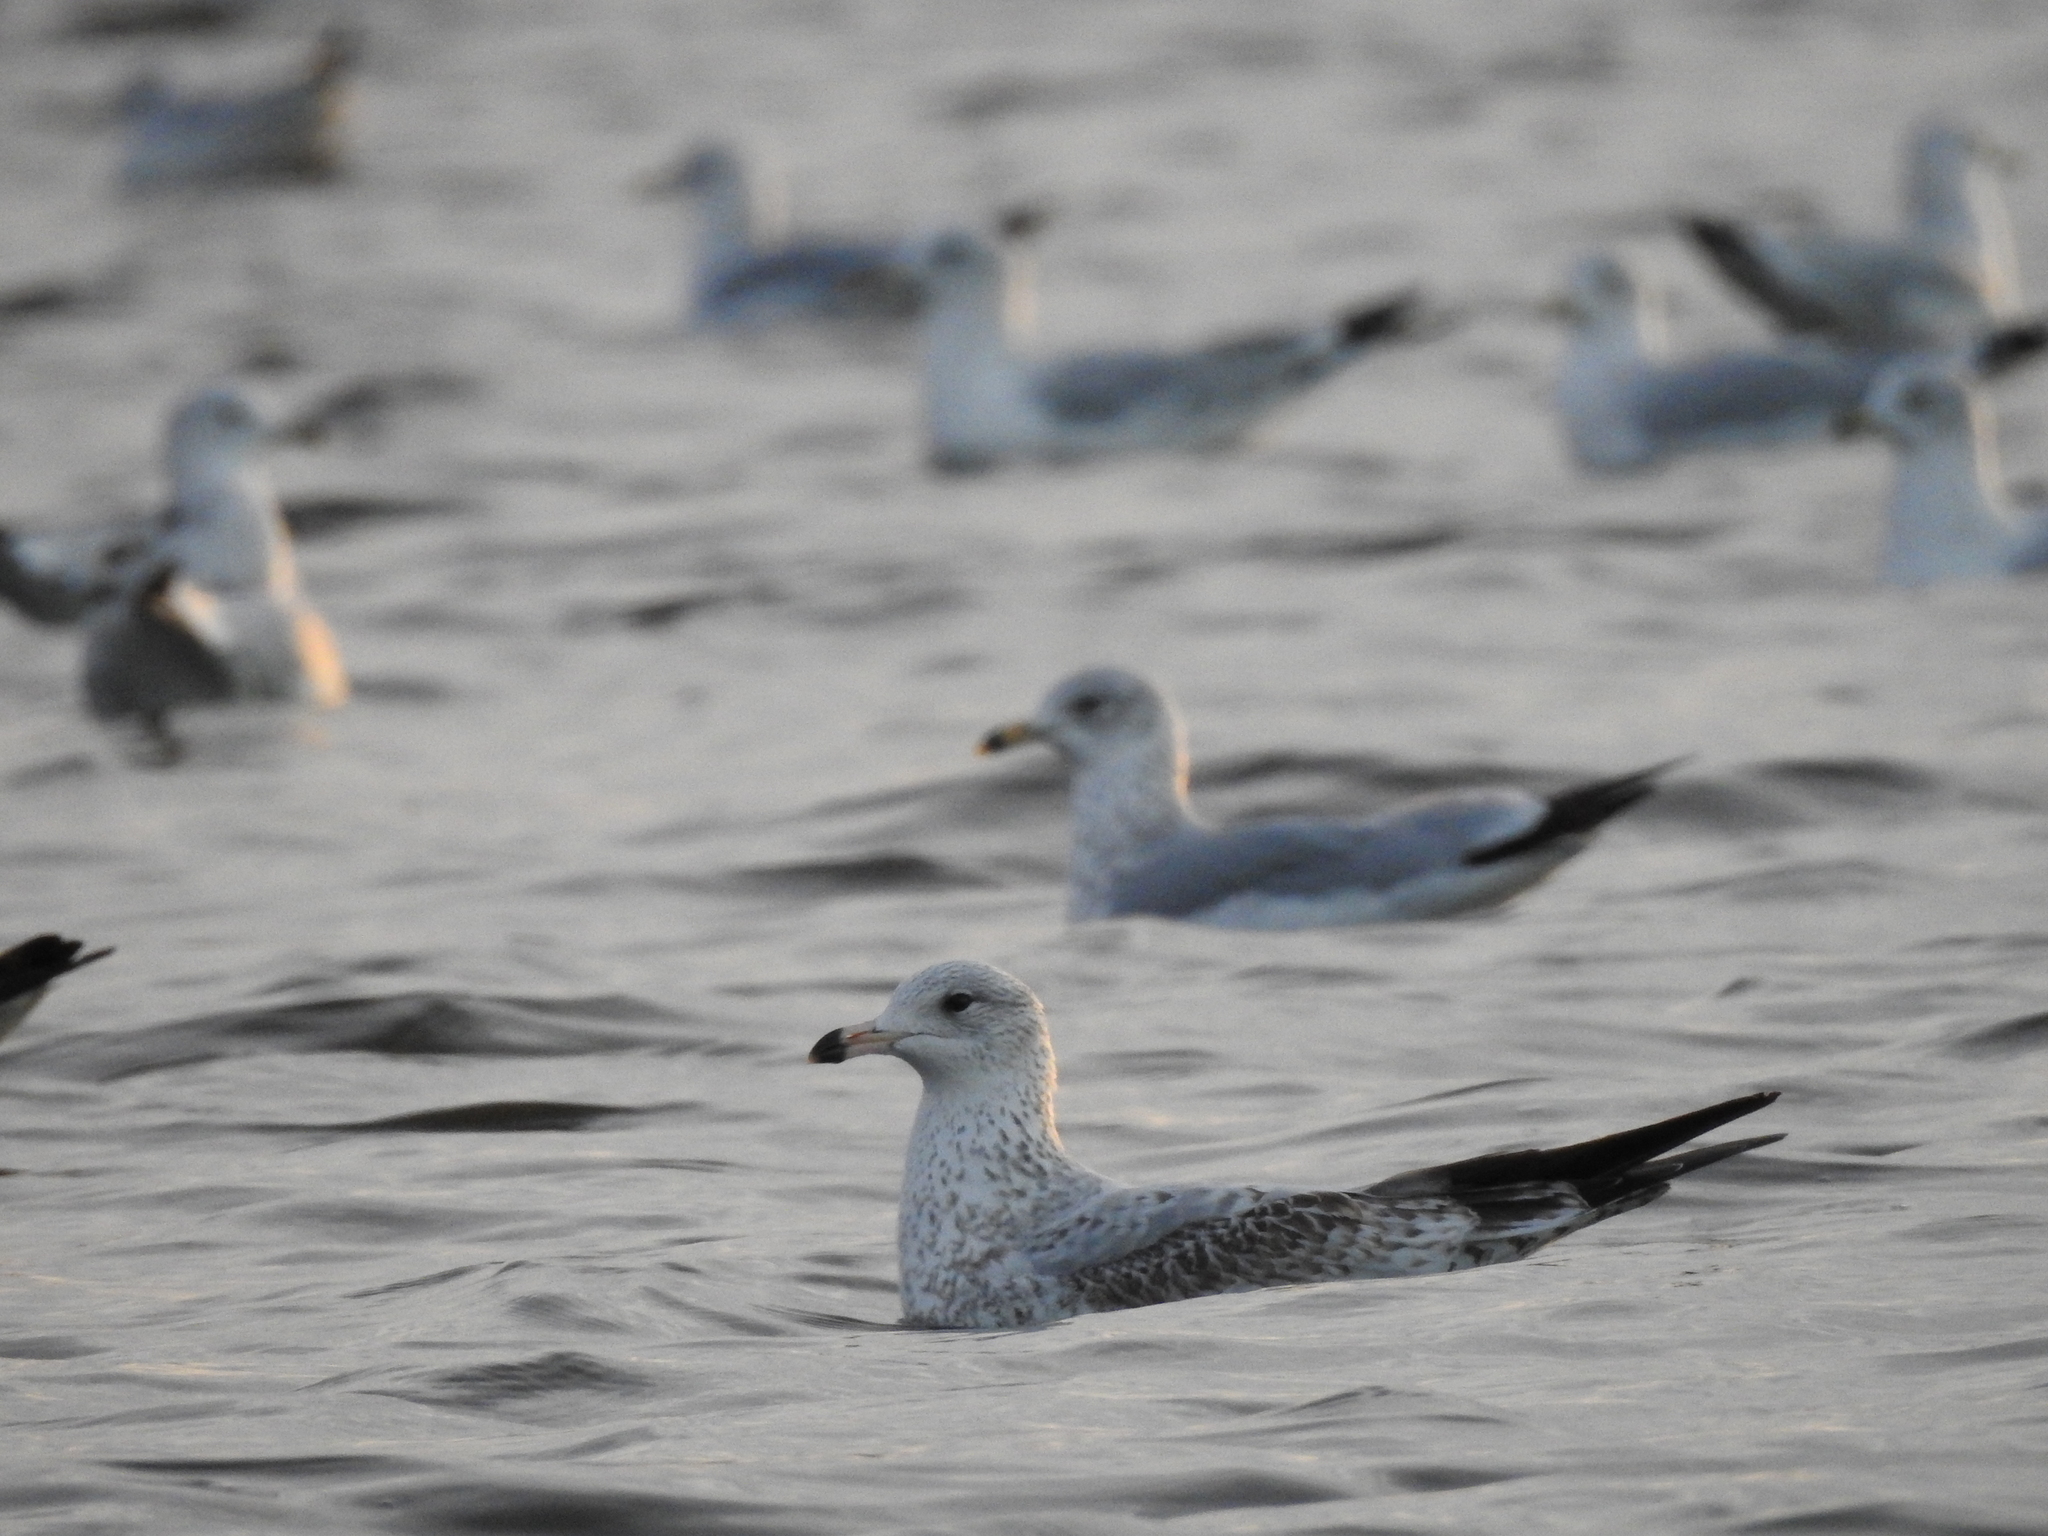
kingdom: Animalia
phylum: Chordata
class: Aves
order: Charadriiformes
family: Laridae
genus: Larus
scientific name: Larus delawarensis
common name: Ring-billed gull
